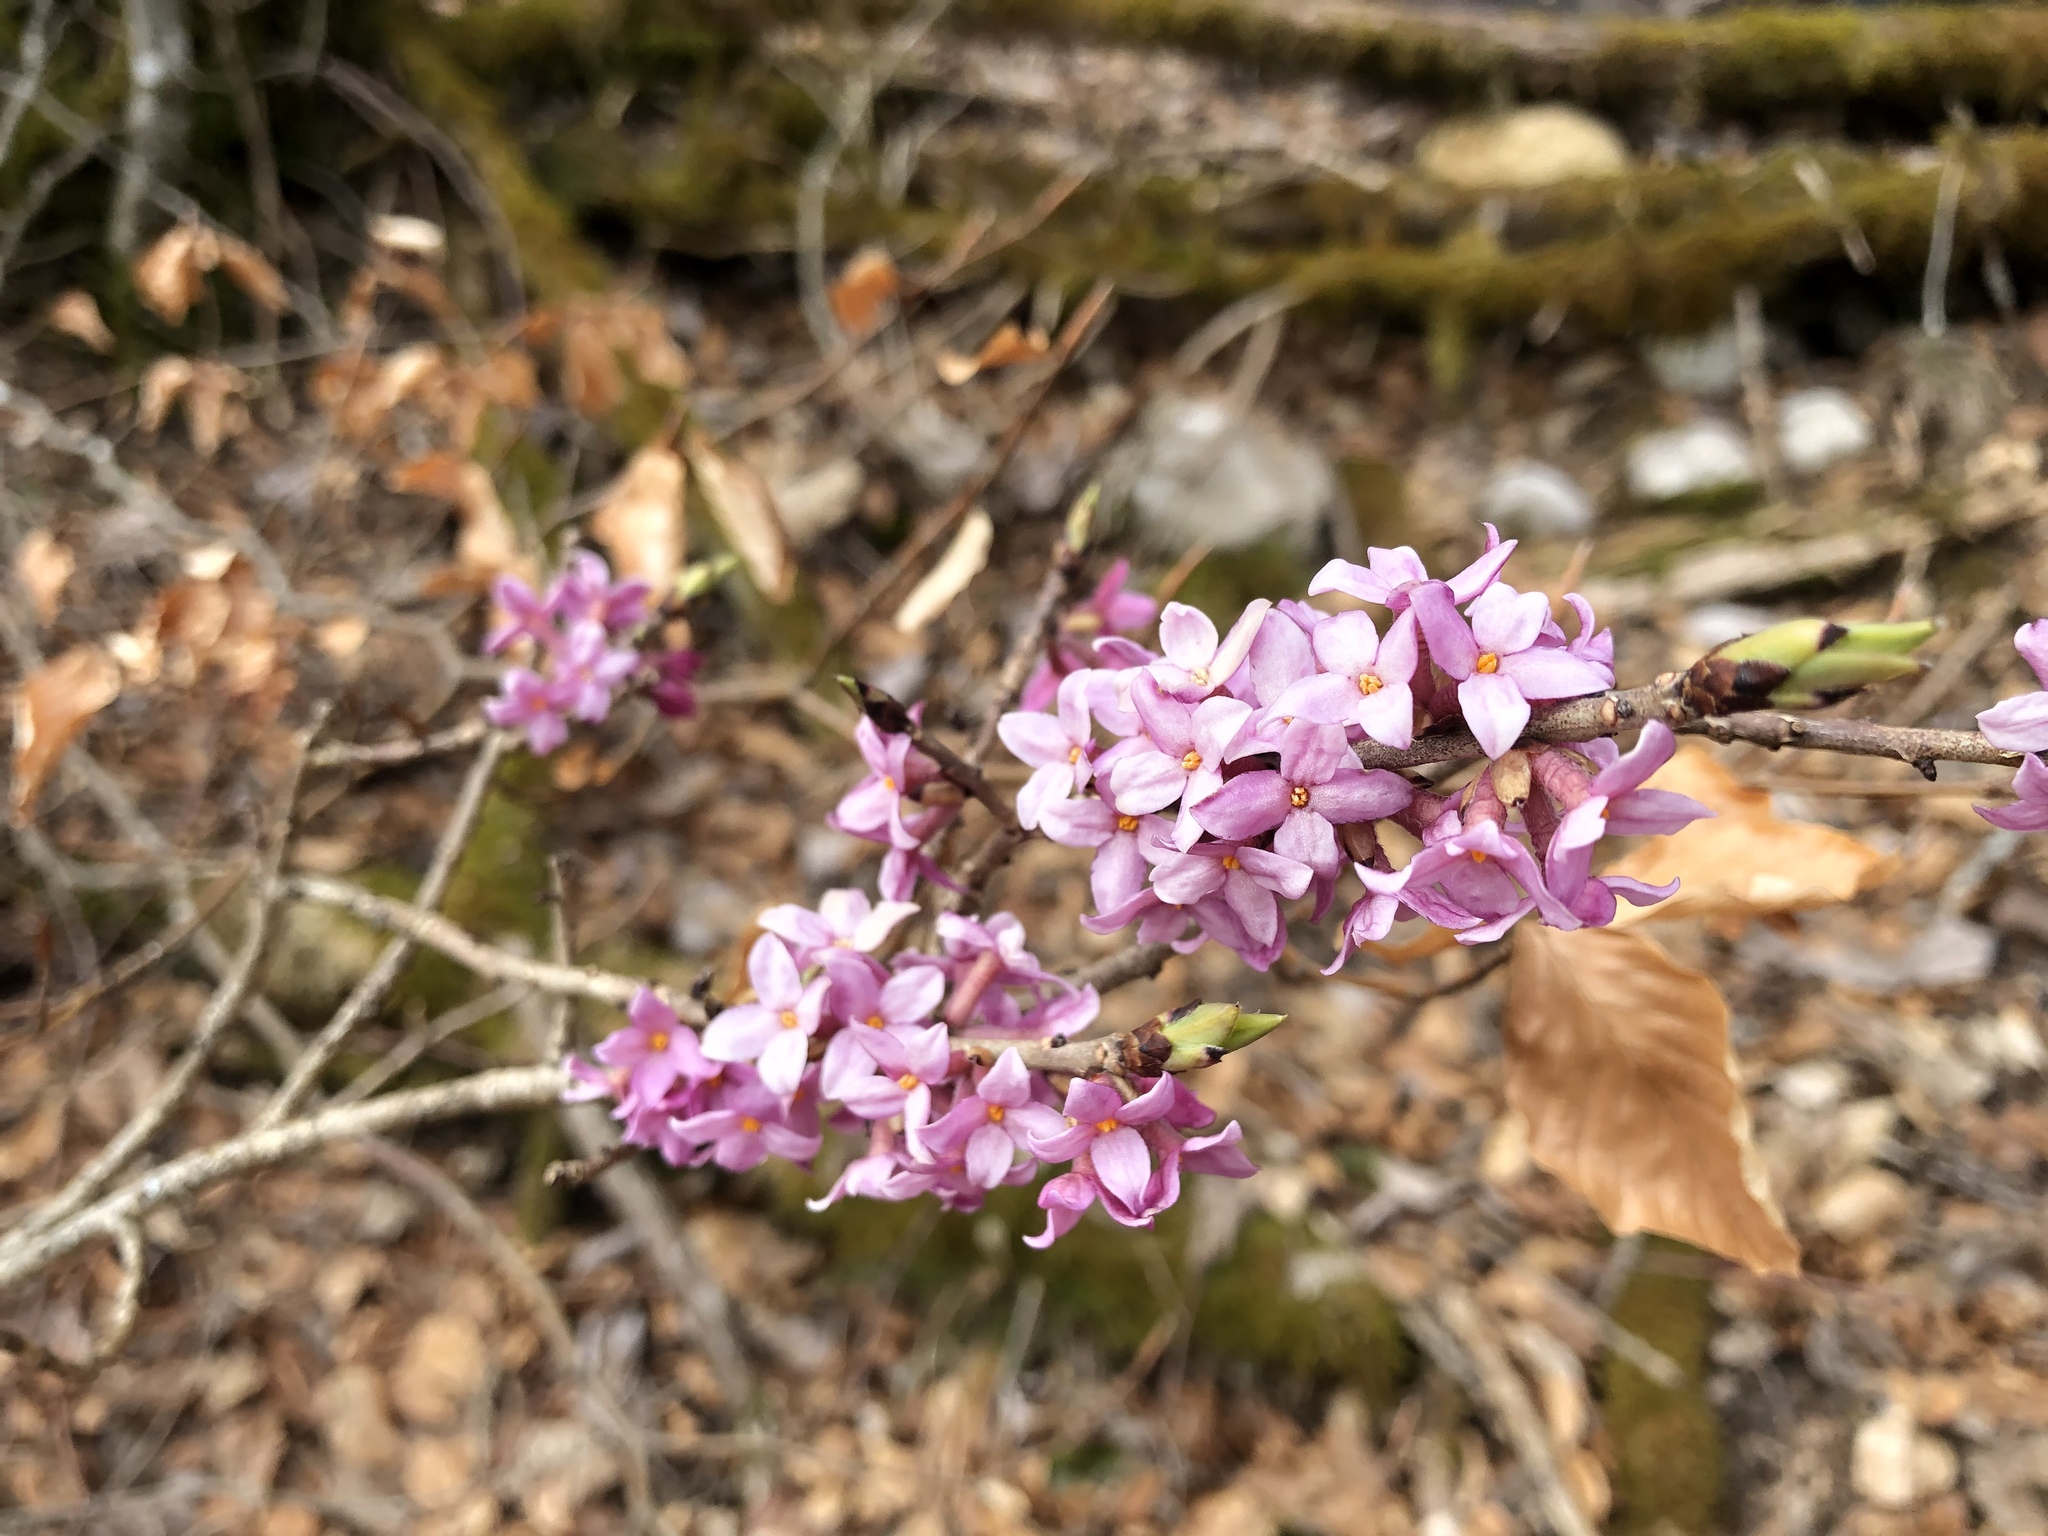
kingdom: Plantae
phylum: Tracheophyta
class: Magnoliopsida
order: Malvales
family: Thymelaeaceae
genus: Daphne
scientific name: Daphne mezereum
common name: Mezereon
